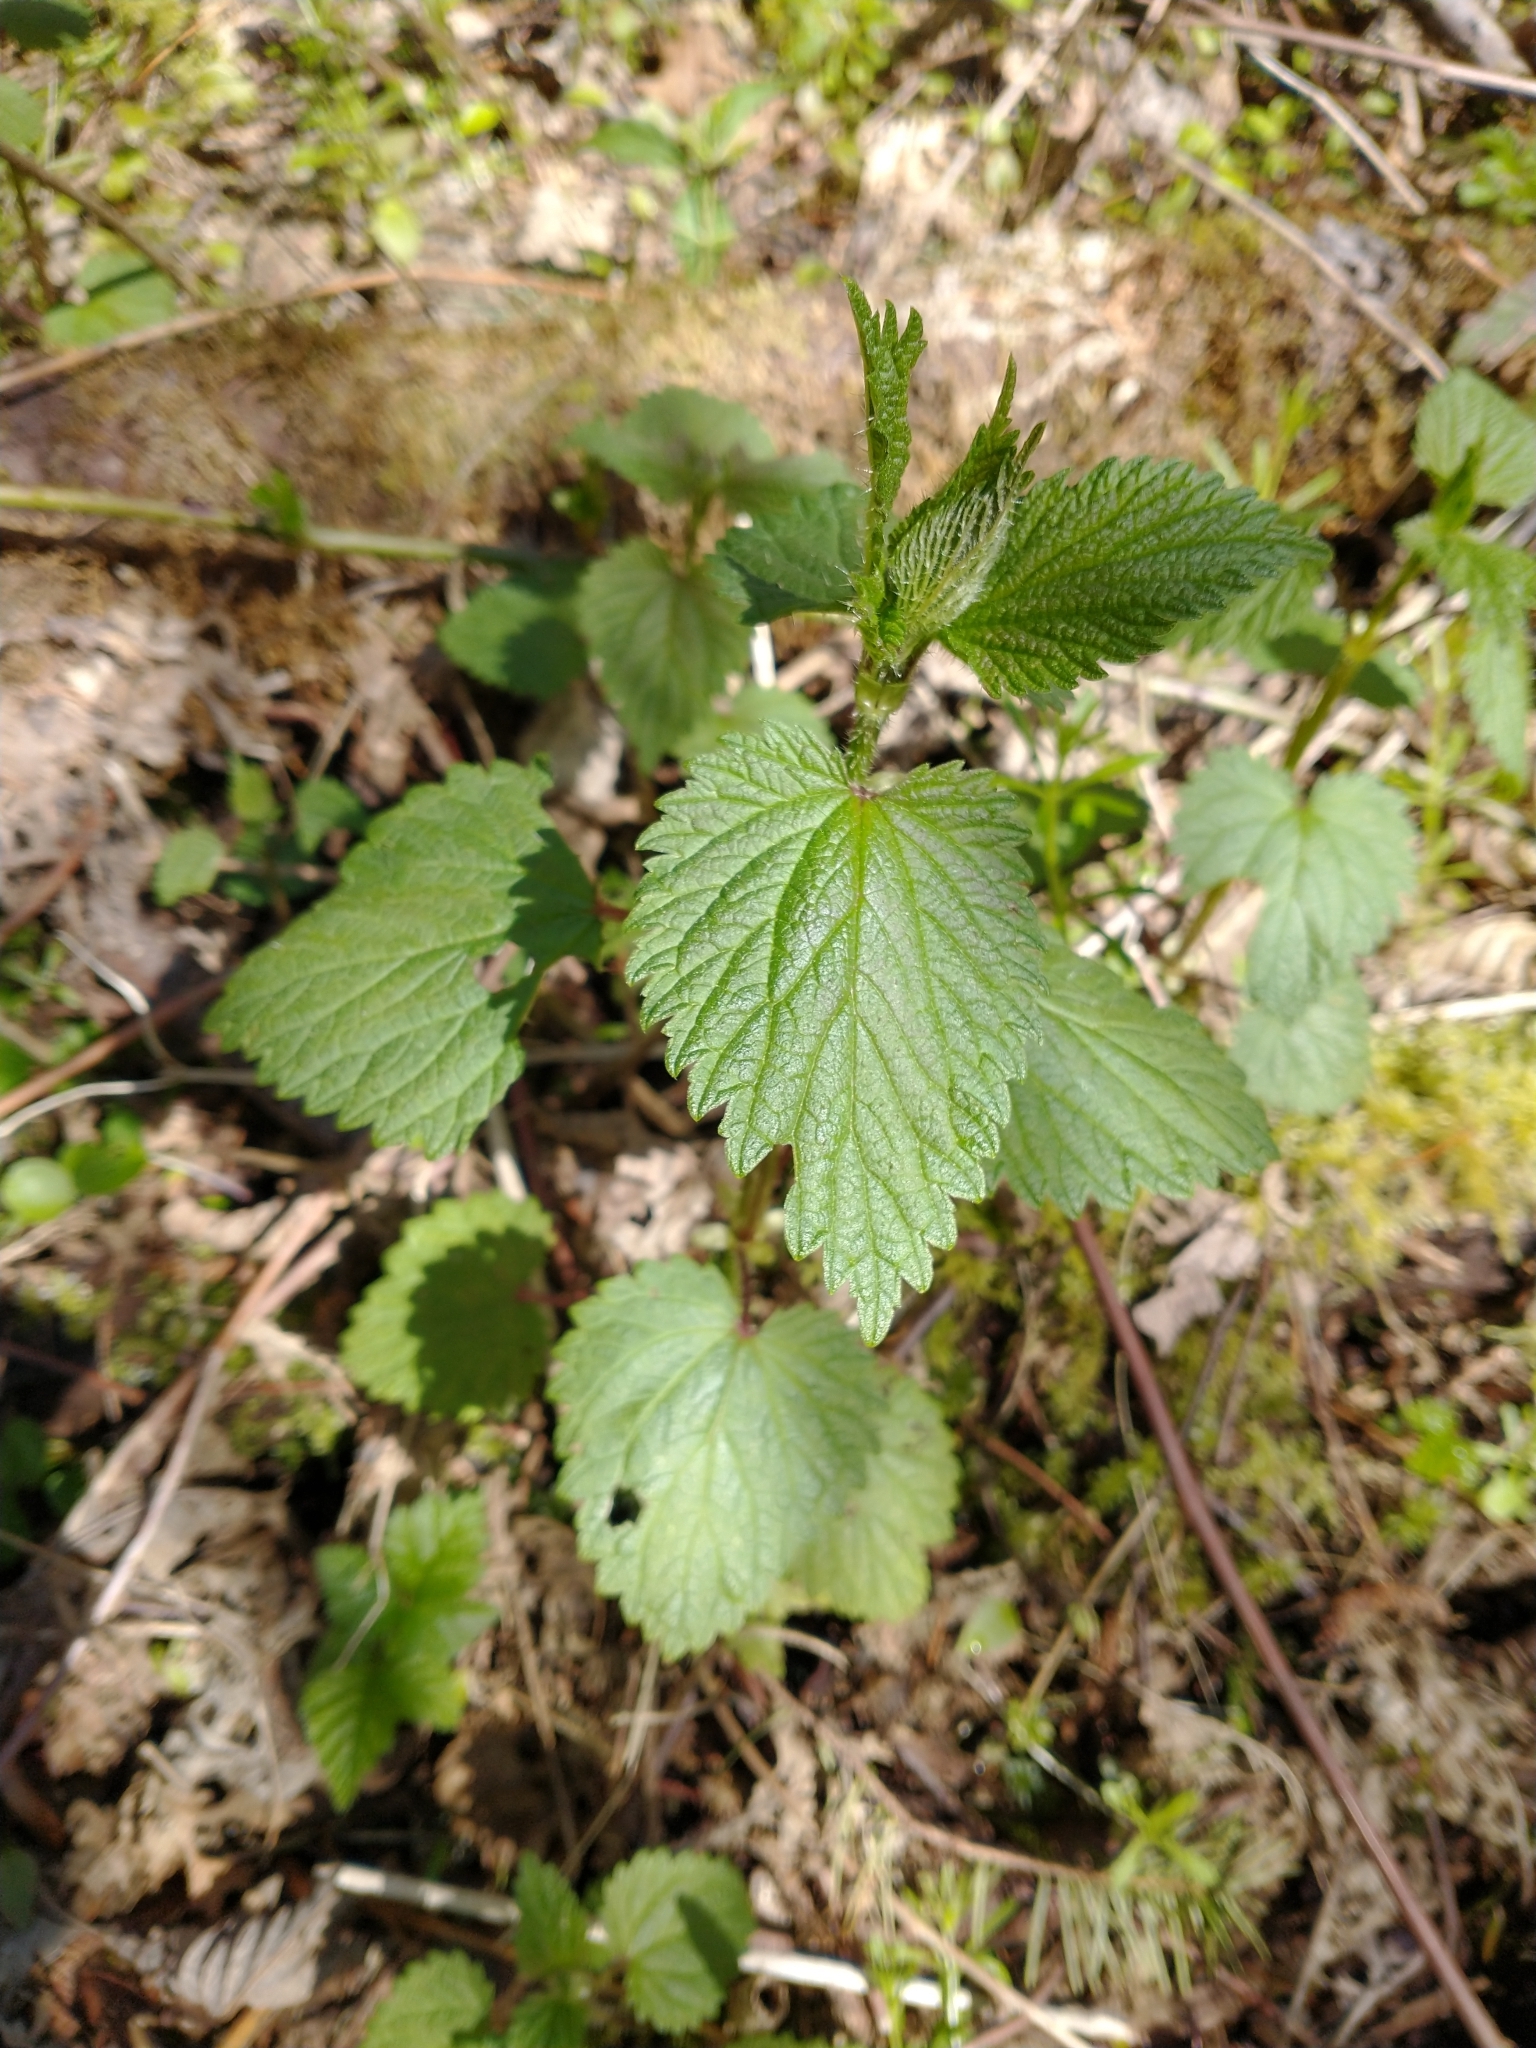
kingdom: Plantae
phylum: Tracheophyta
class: Magnoliopsida
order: Rosales
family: Urticaceae
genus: Urtica
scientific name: Urtica gracilis
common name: Slender stinging nettle
